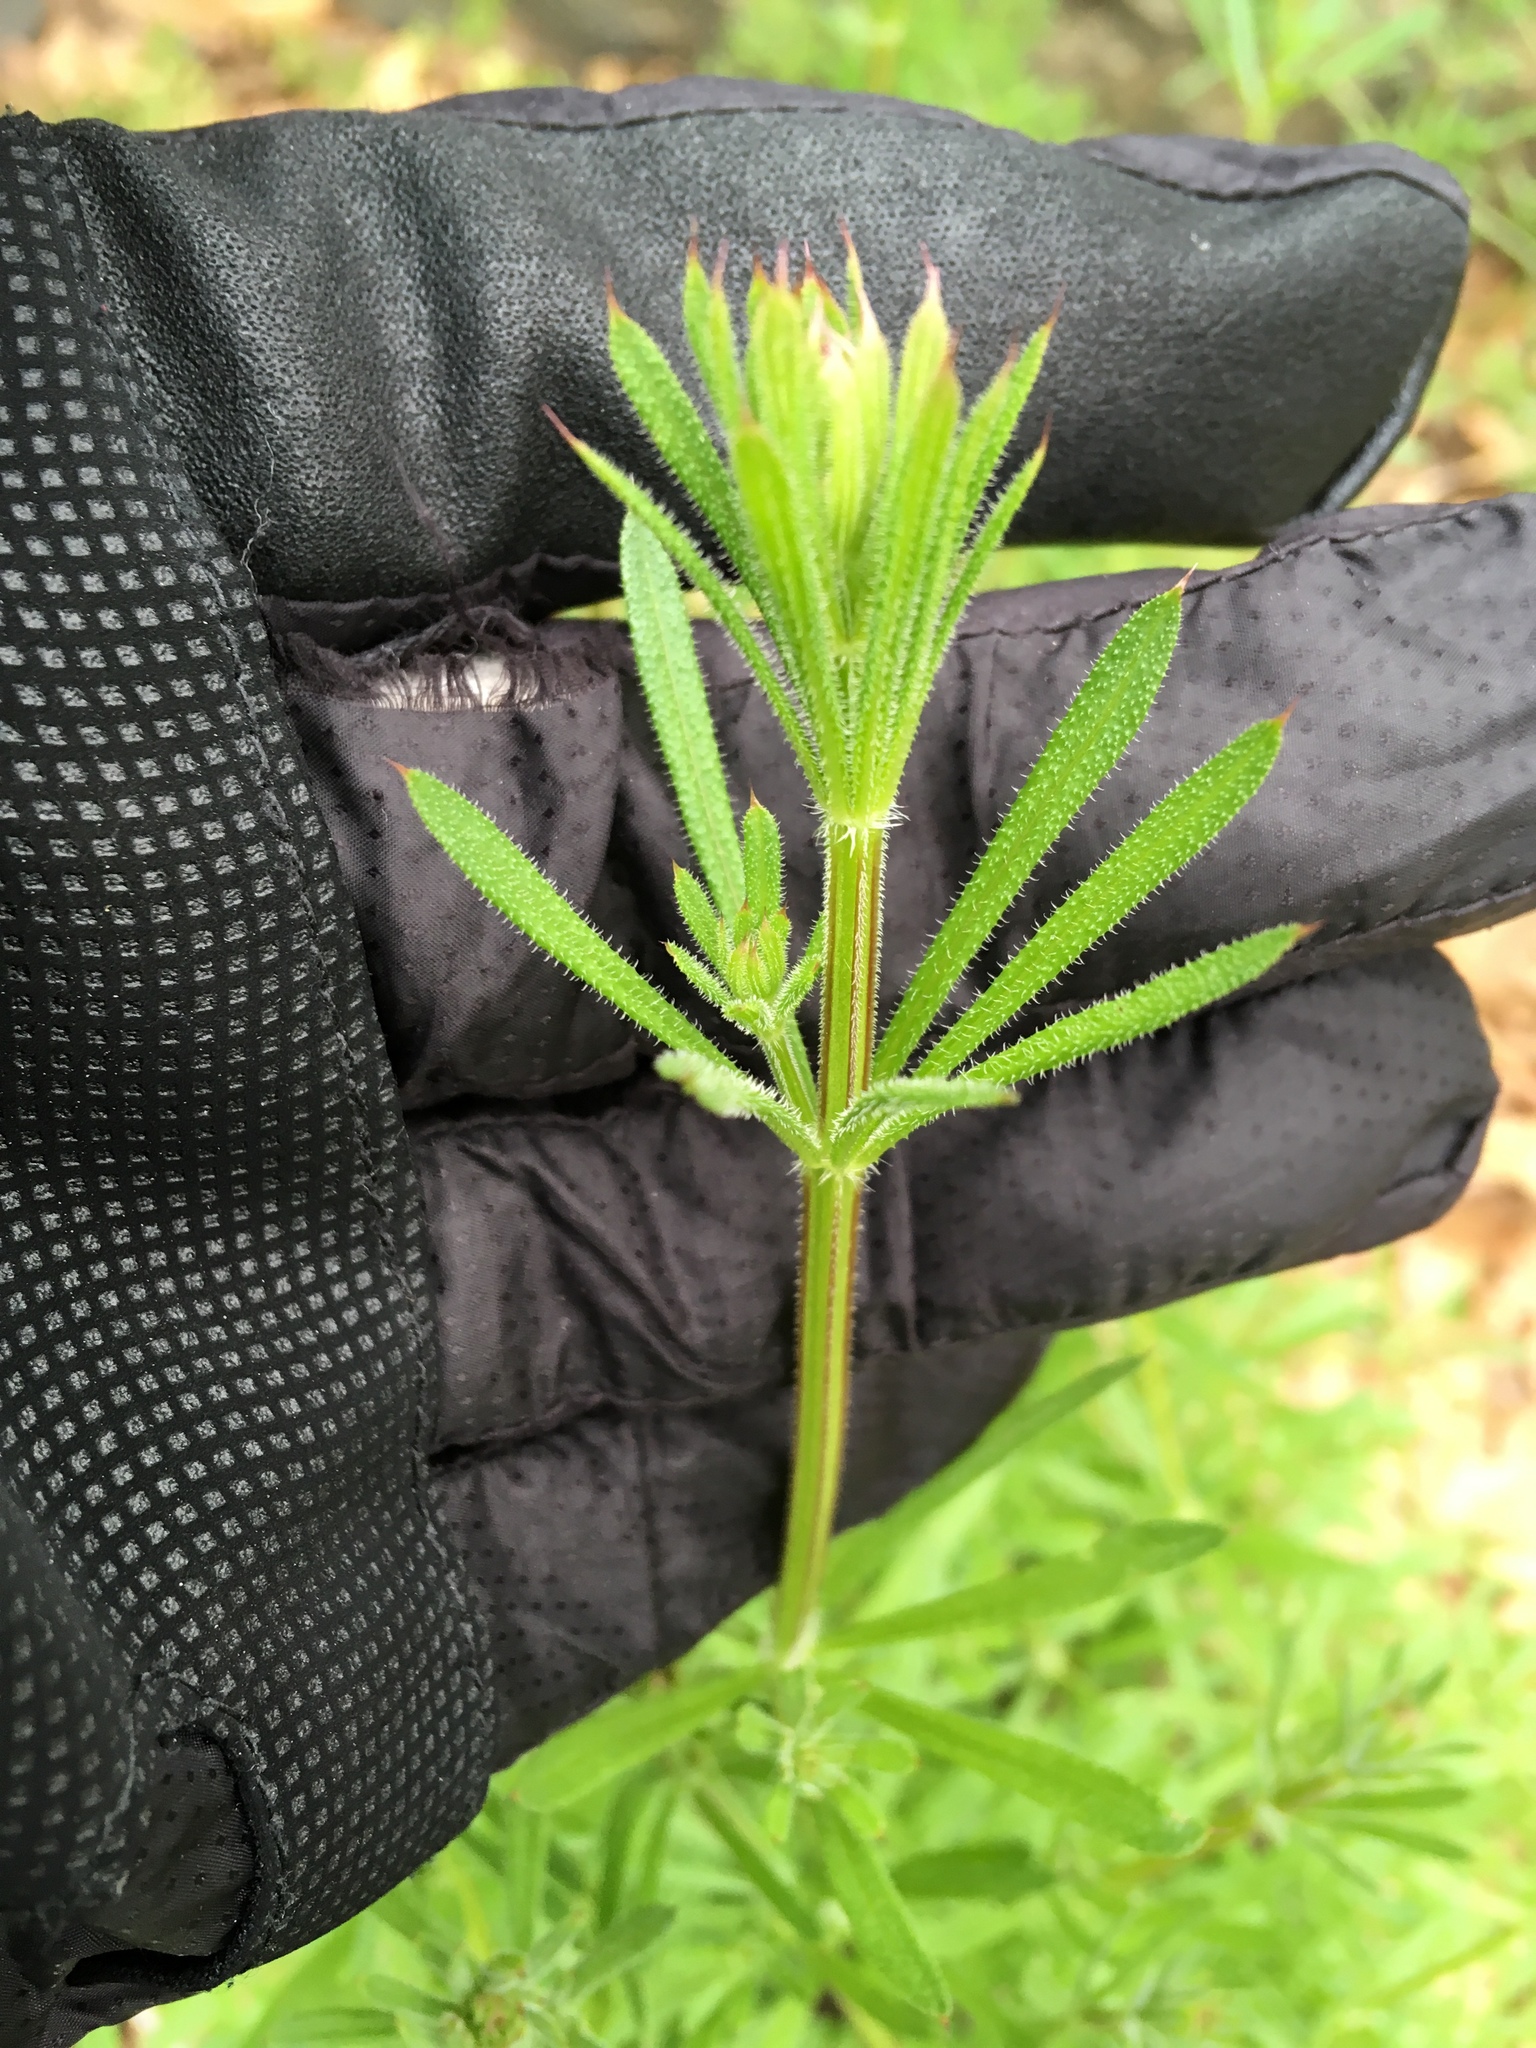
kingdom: Plantae
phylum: Tracheophyta
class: Magnoliopsida
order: Gentianales
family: Rubiaceae
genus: Galium
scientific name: Galium aparine
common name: Cleavers
